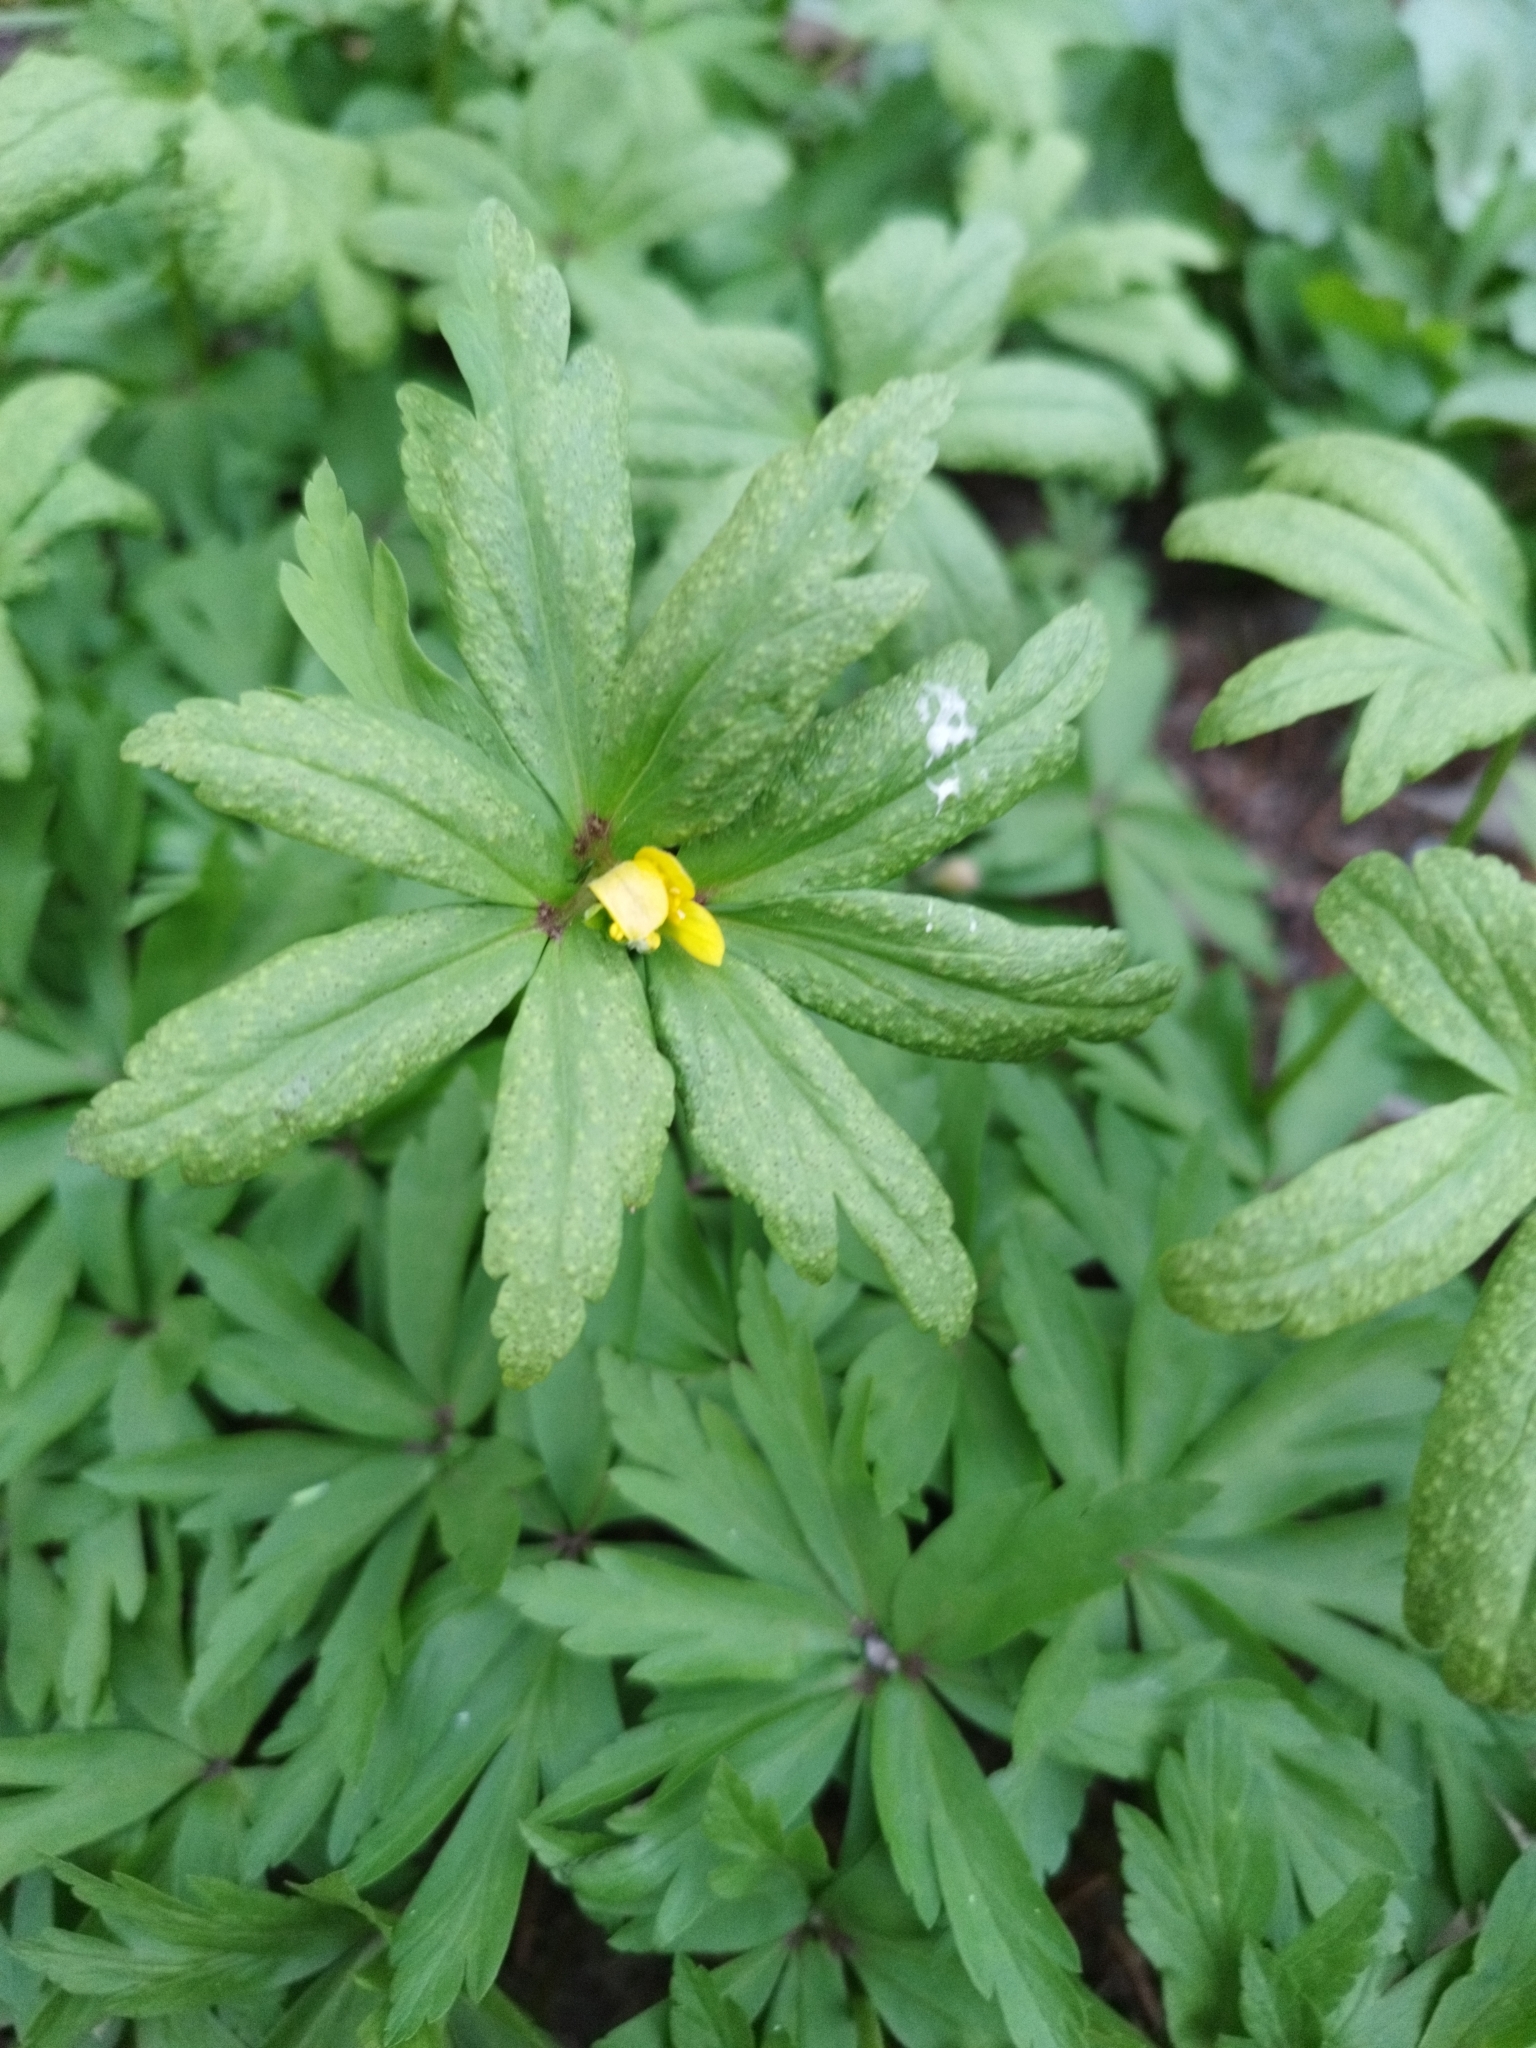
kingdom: Plantae
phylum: Tracheophyta
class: Magnoliopsida
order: Ranunculales
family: Ranunculaceae
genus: Anemone
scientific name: Anemone ranunculoides
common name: Yellow anemone
